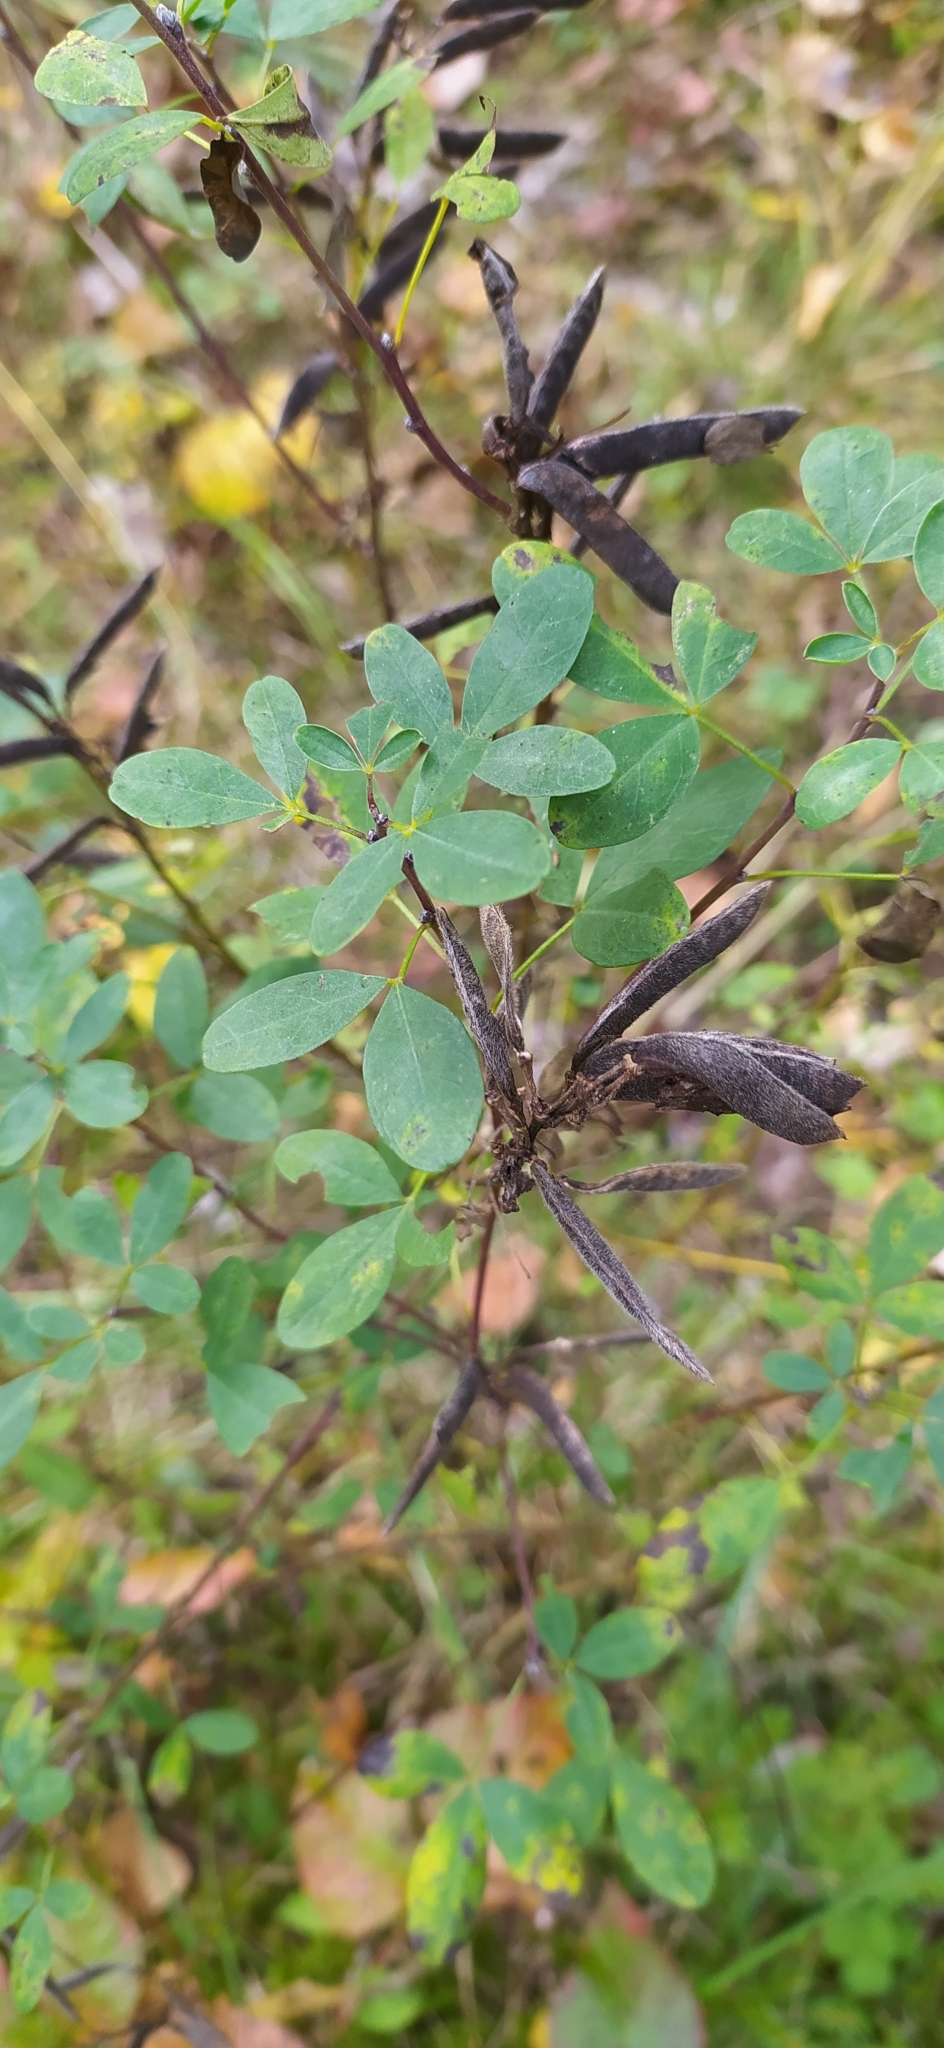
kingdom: Plantae
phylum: Tracheophyta
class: Magnoliopsida
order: Fabales
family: Fabaceae
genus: Chamaecytisus
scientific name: Chamaecytisus ruthenicus
